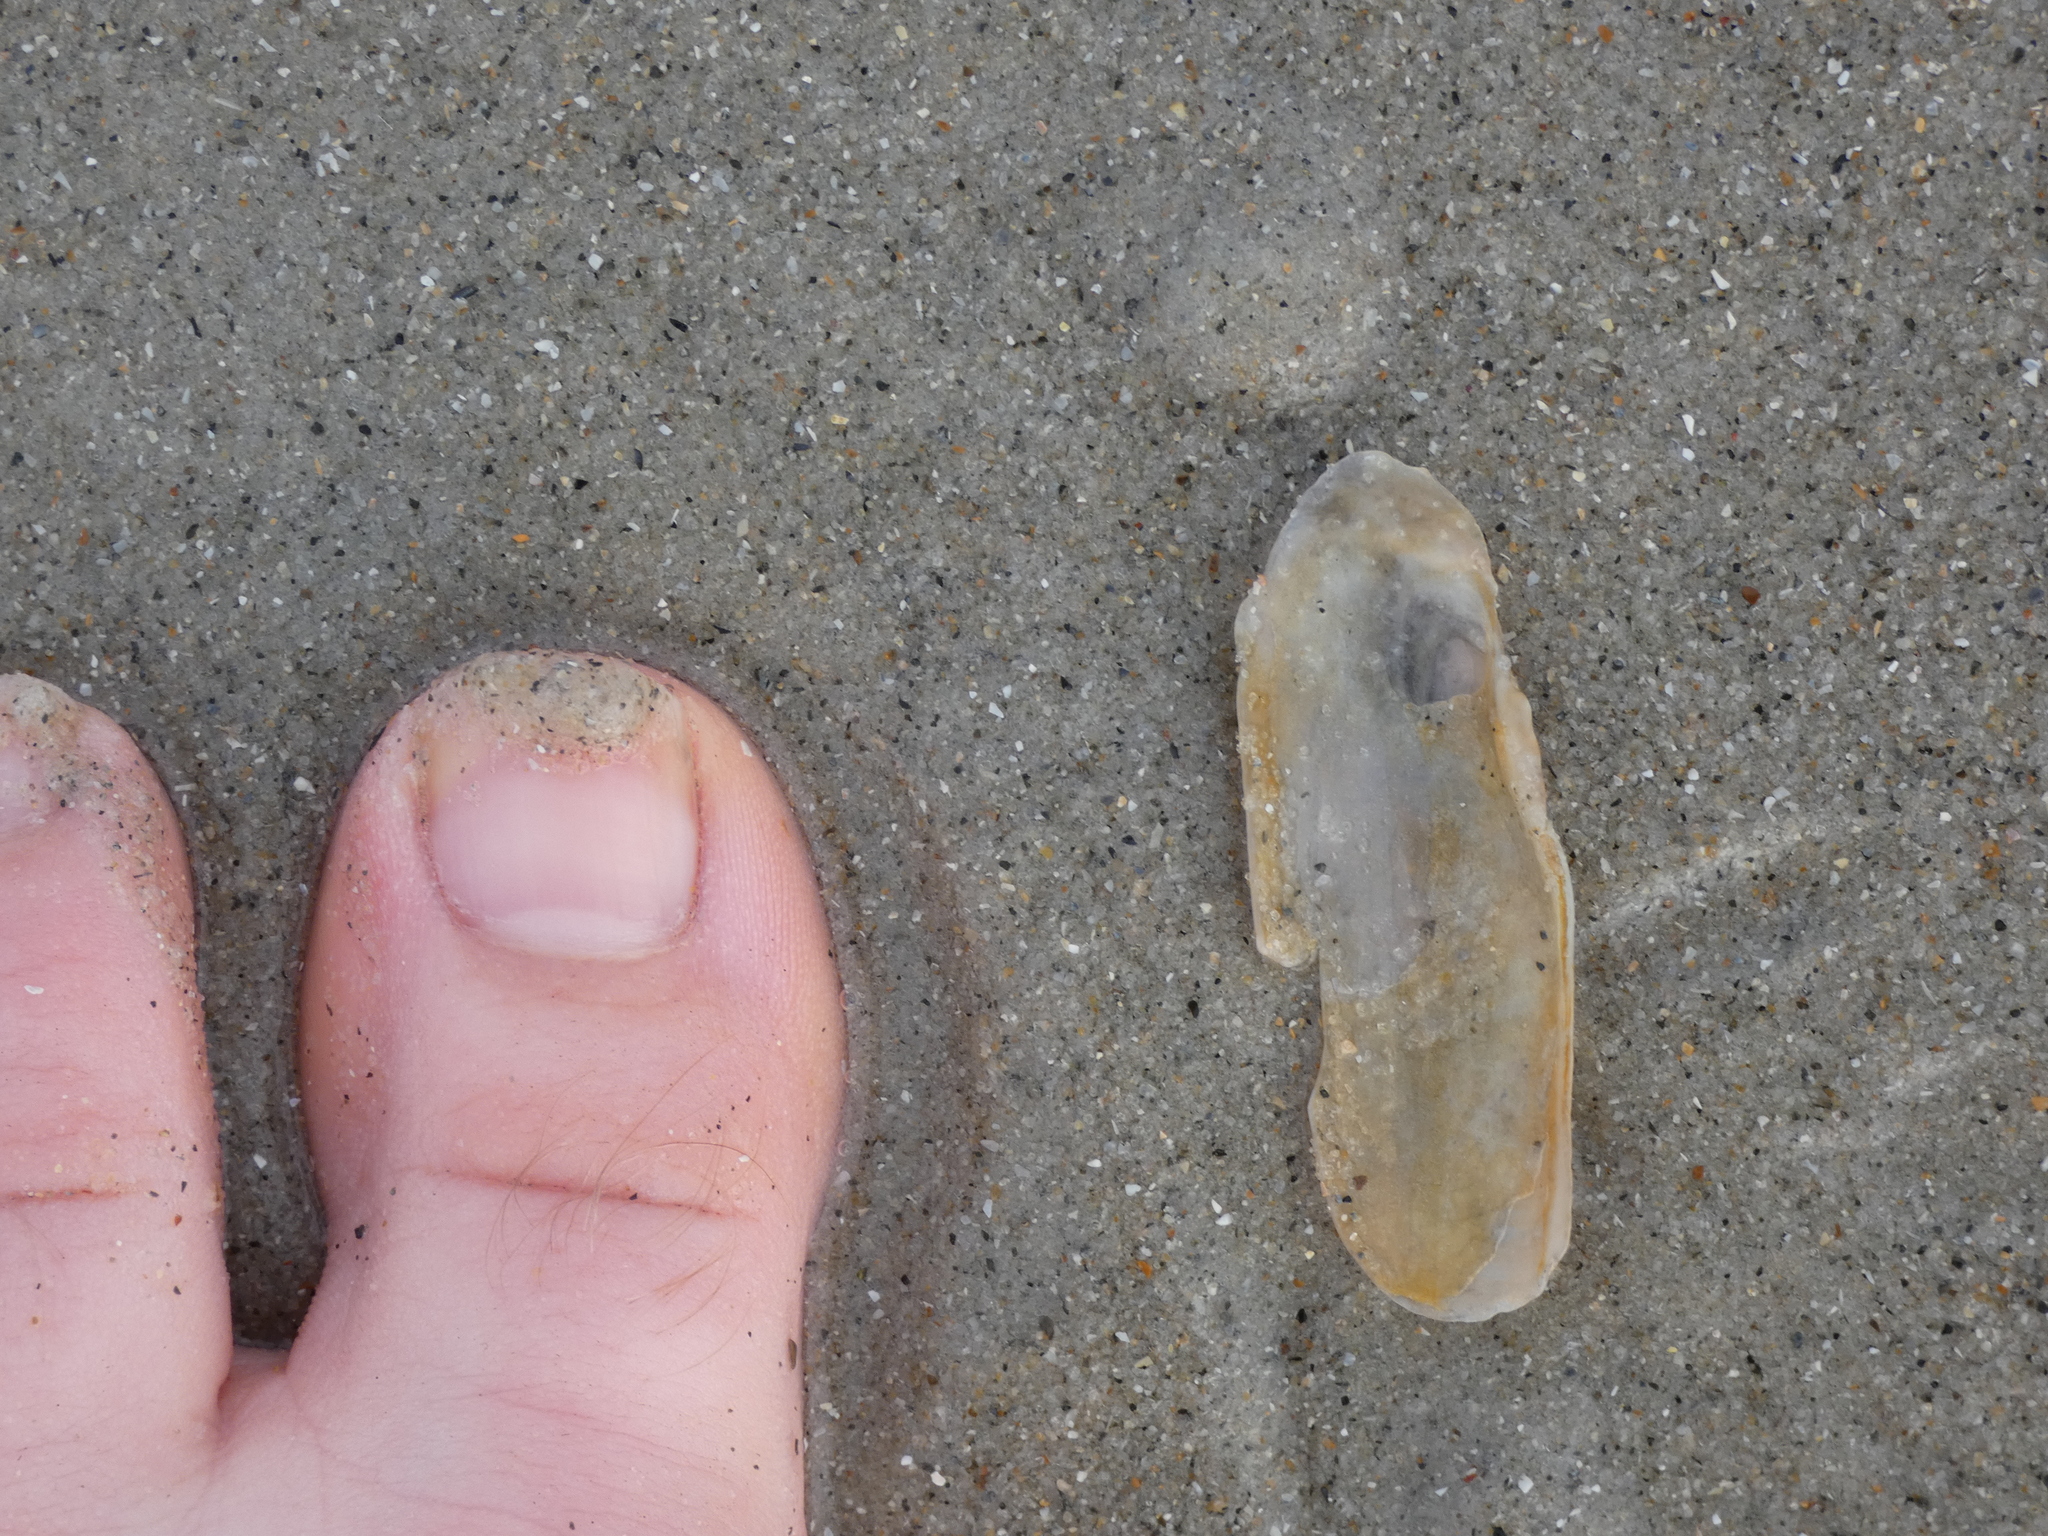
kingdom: Animalia
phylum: Mollusca
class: Bivalvia
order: Cardiida
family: Solecurtidae
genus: Tagelus
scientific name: Tagelus plebeius
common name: Stout tagelus
